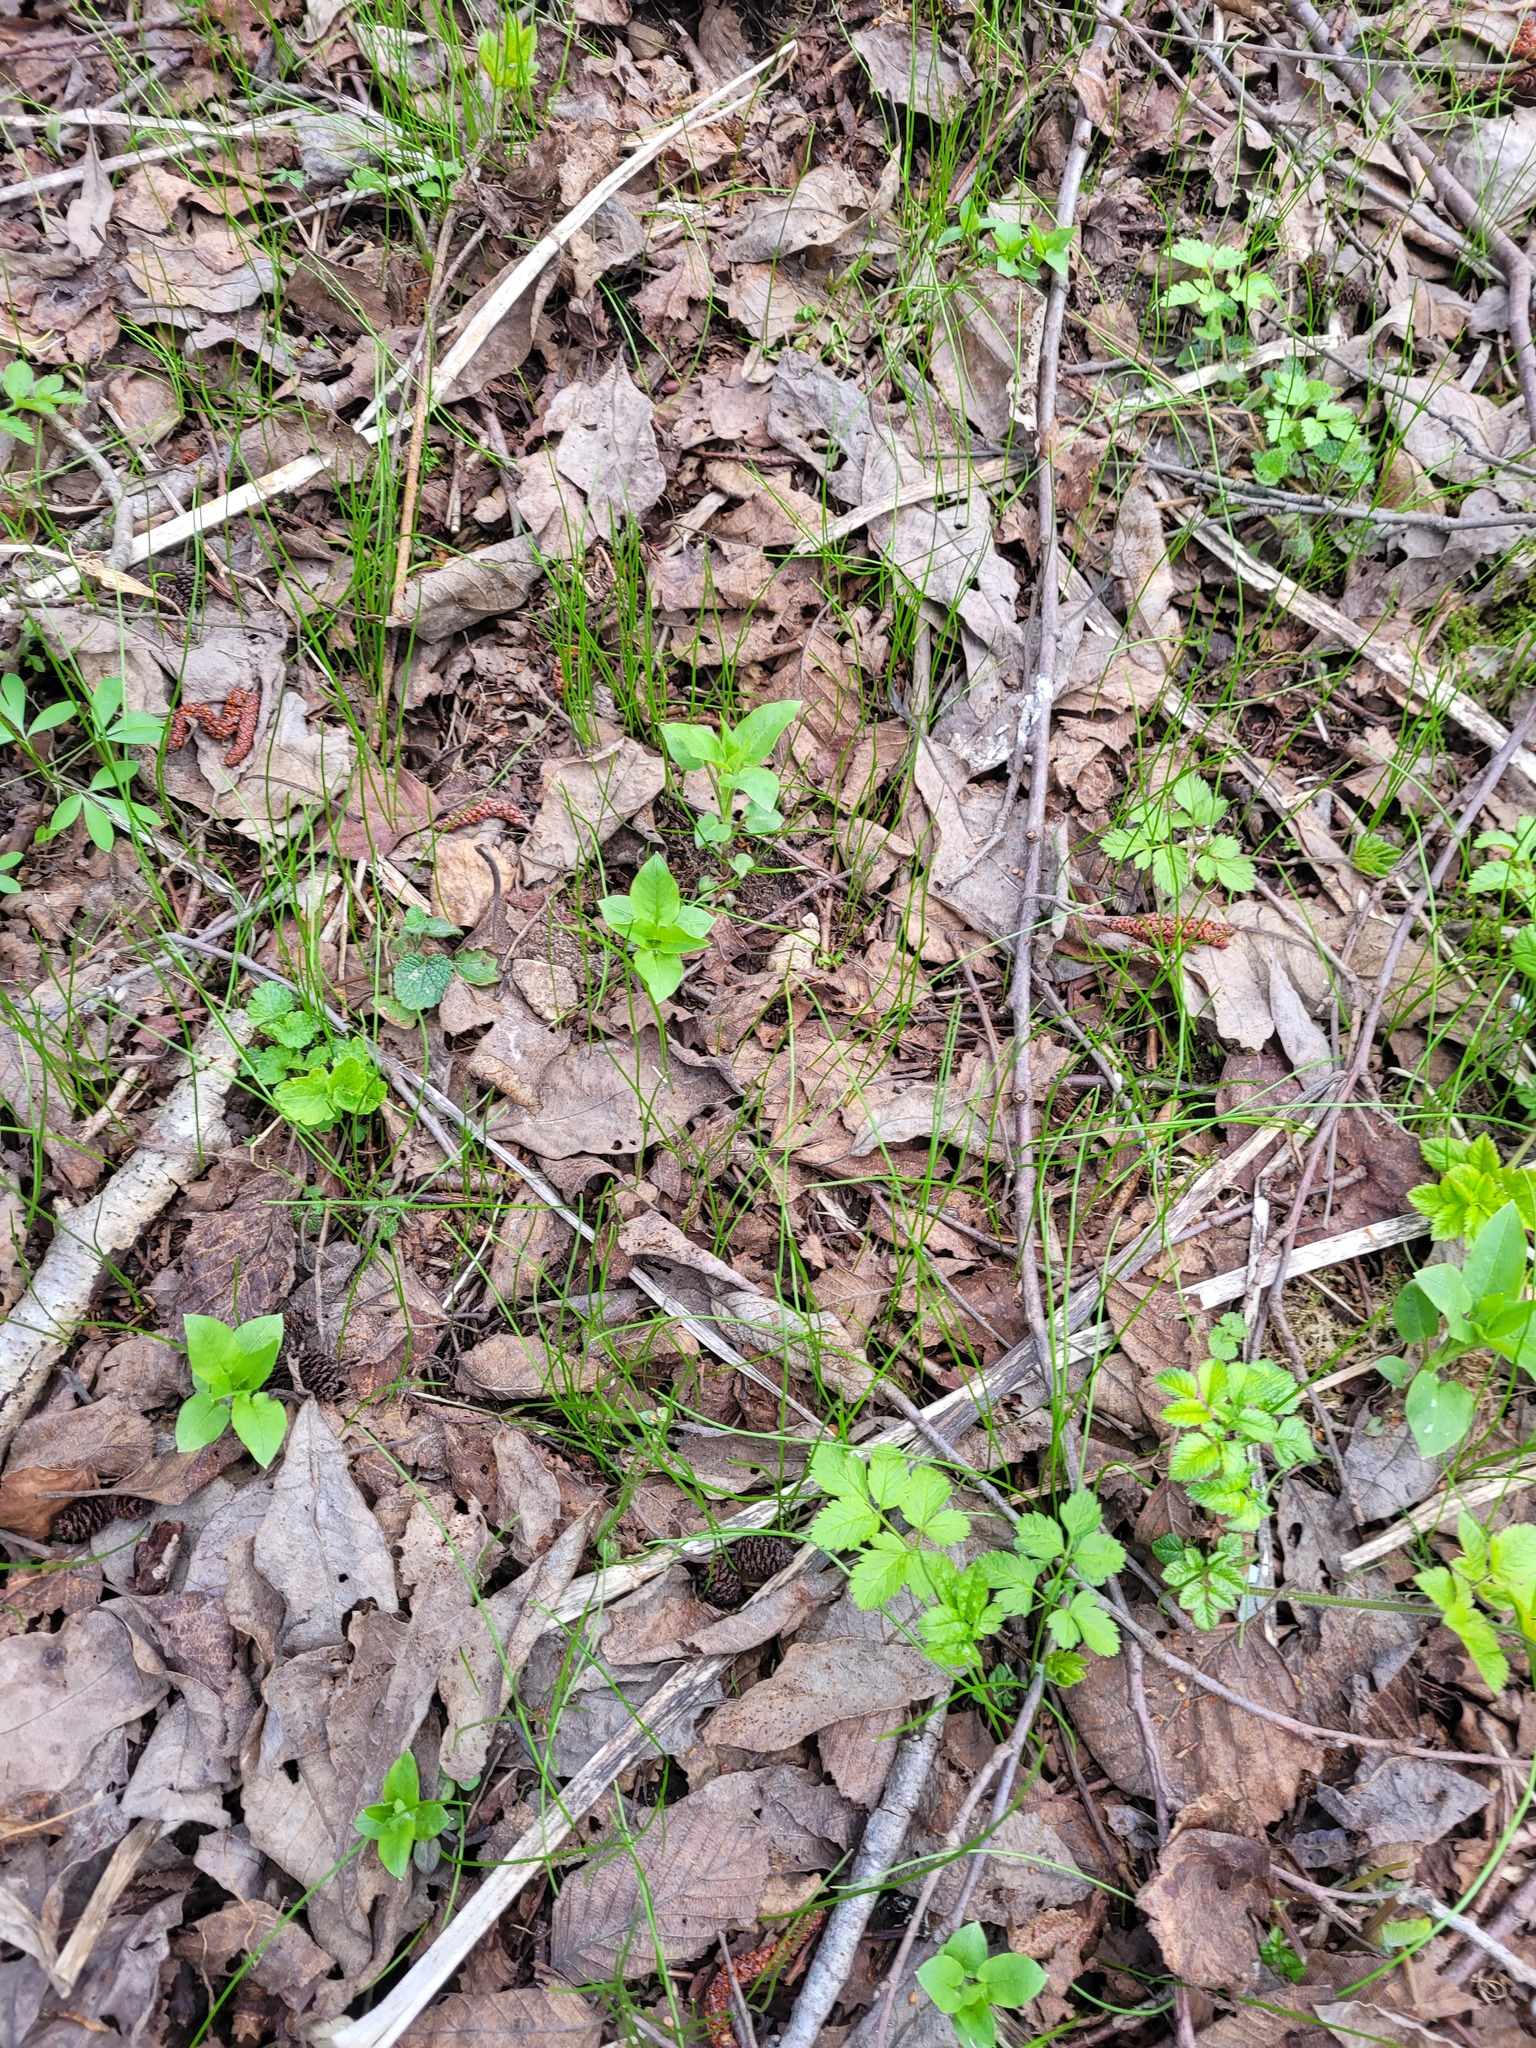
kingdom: Plantae
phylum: Tracheophyta
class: Liliopsida
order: Liliales
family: Liliaceae
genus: Gagea
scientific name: Gagea minima
